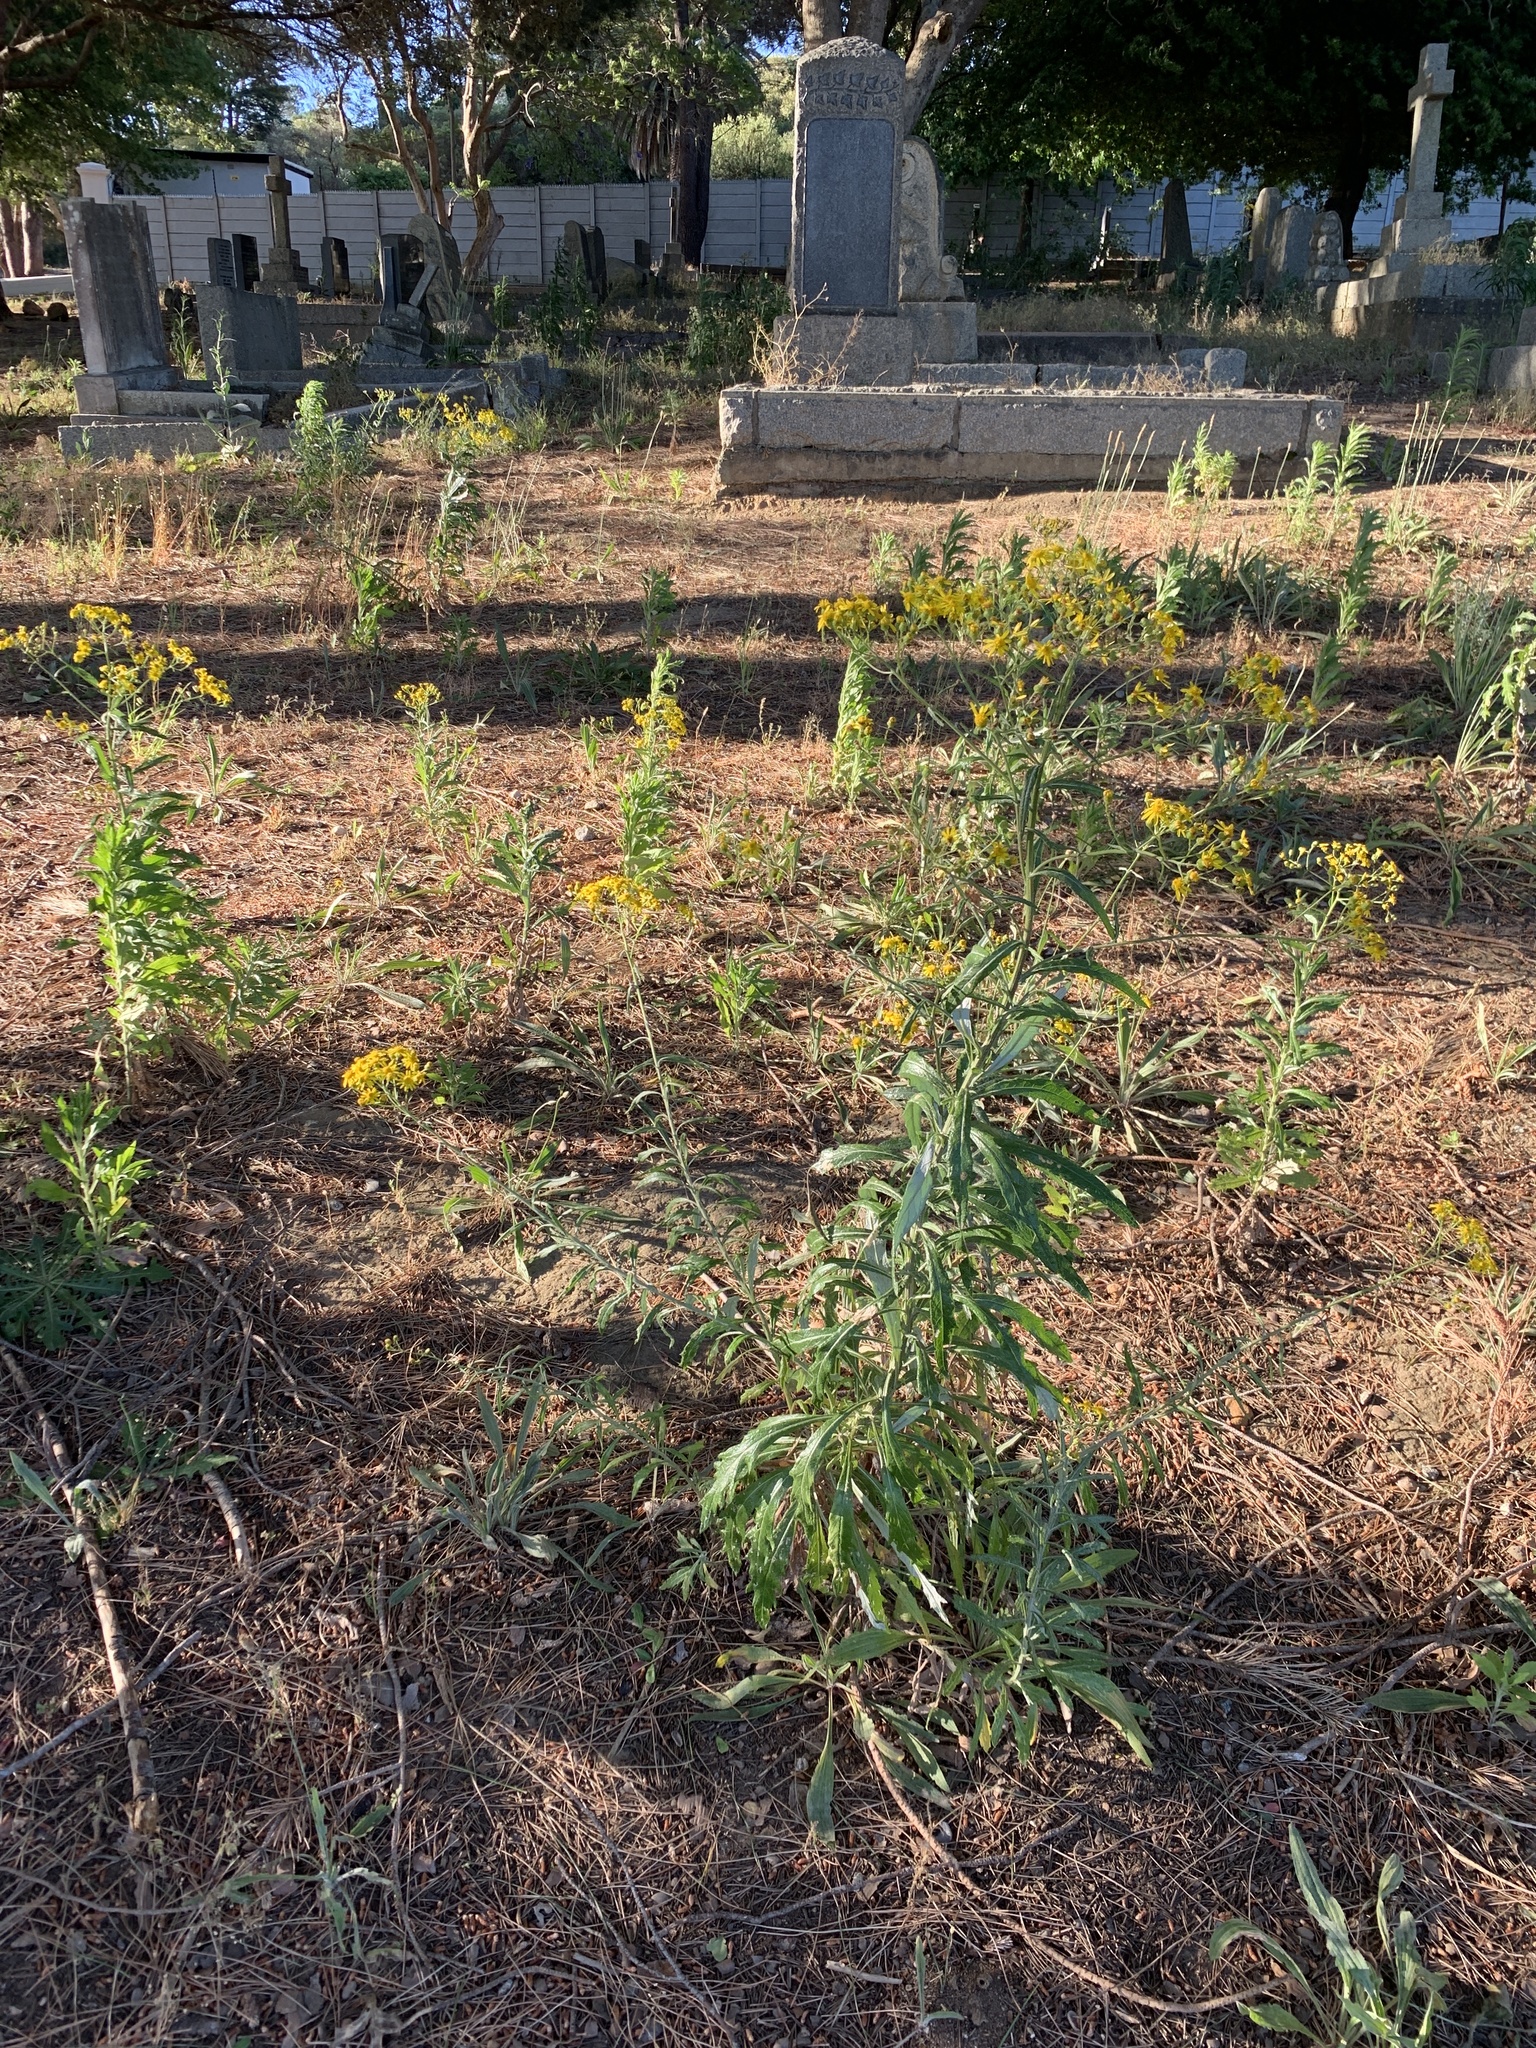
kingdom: Plantae
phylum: Tracheophyta
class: Magnoliopsida
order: Asterales
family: Asteraceae
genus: Senecio
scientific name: Senecio pterophorus
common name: Shoddy ragwort
